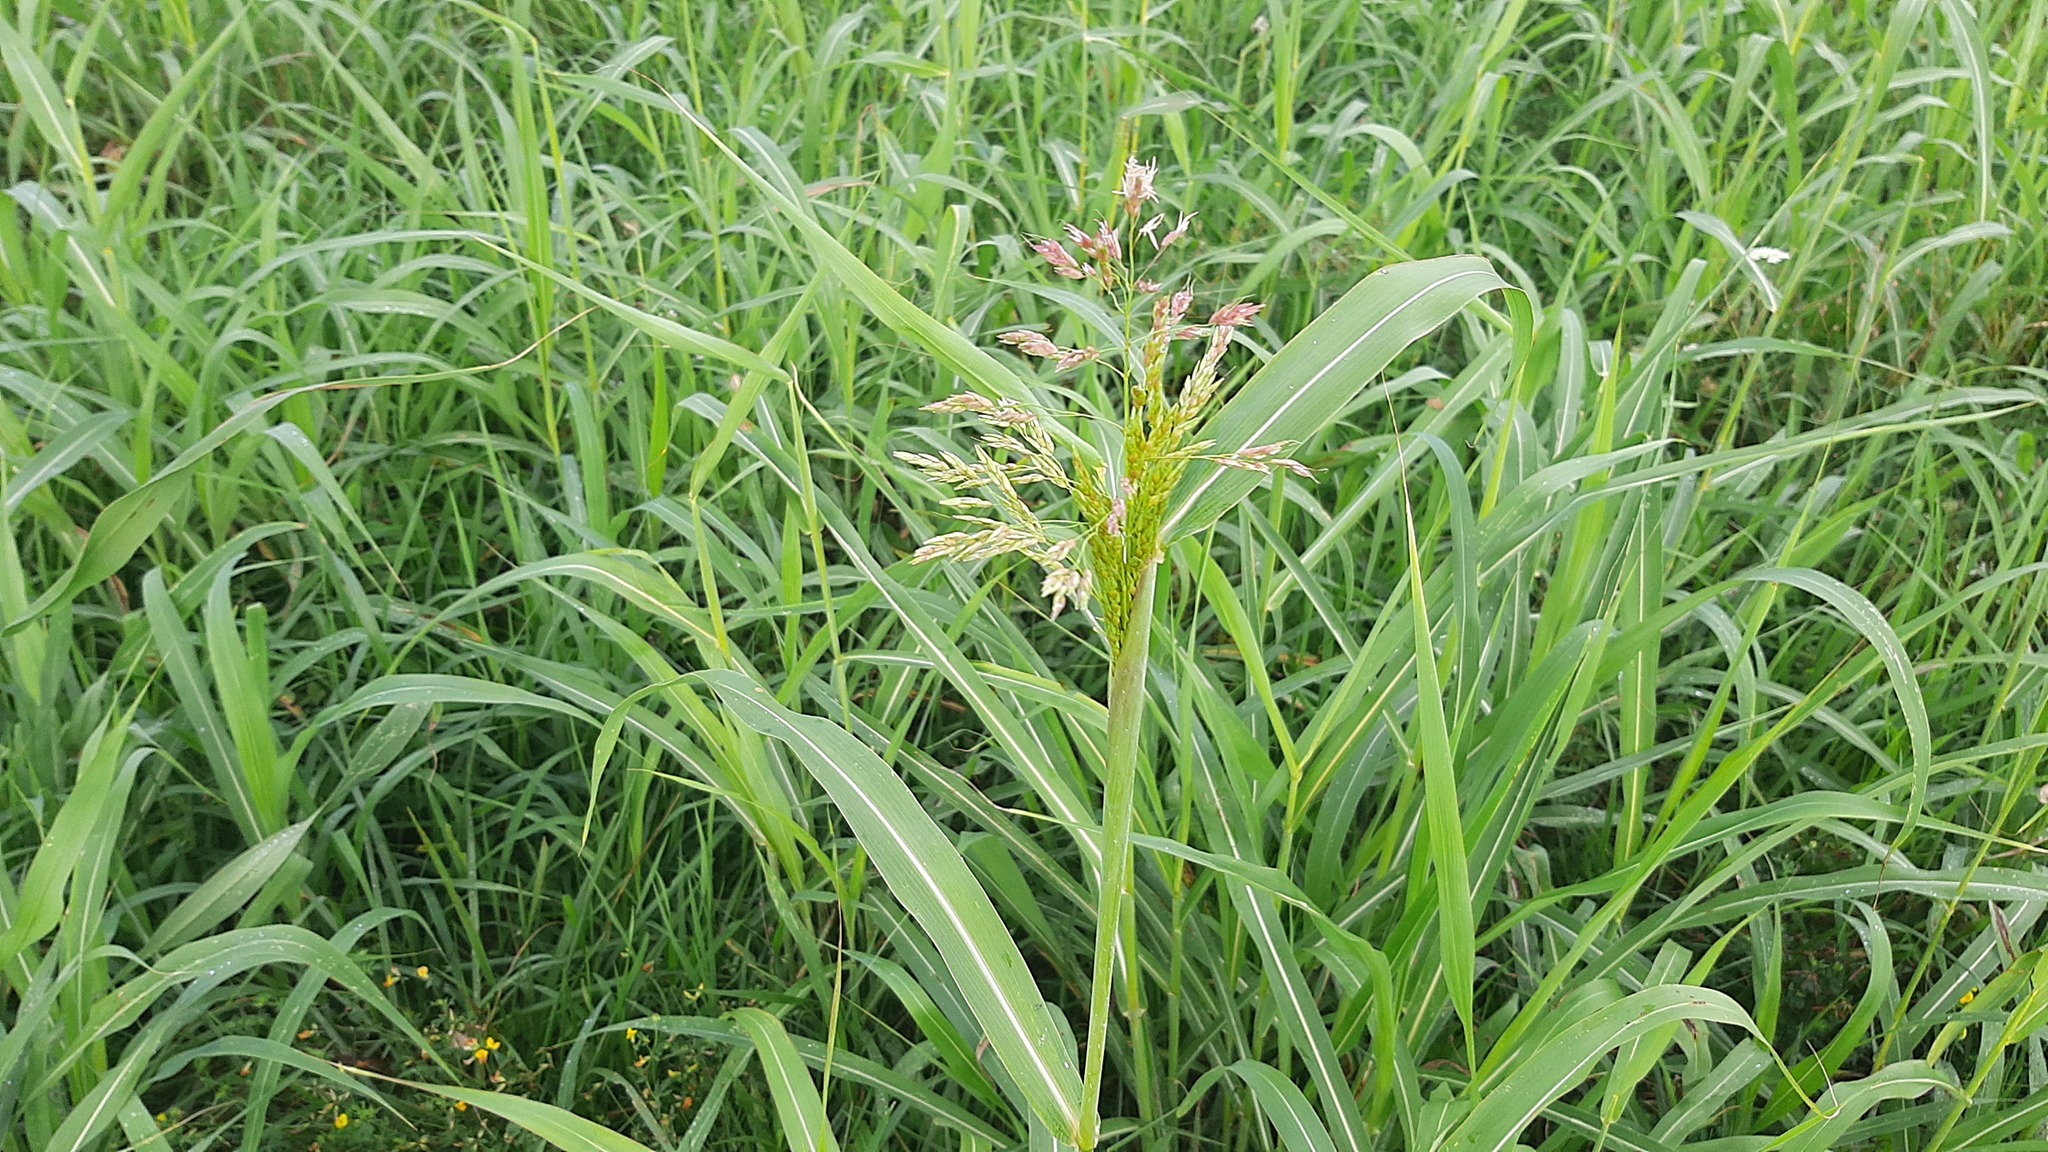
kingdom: Plantae
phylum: Tracheophyta
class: Liliopsida
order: Poales
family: Poaceae
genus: Sorghum
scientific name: Sorghum halepense
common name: Johnson-grass
